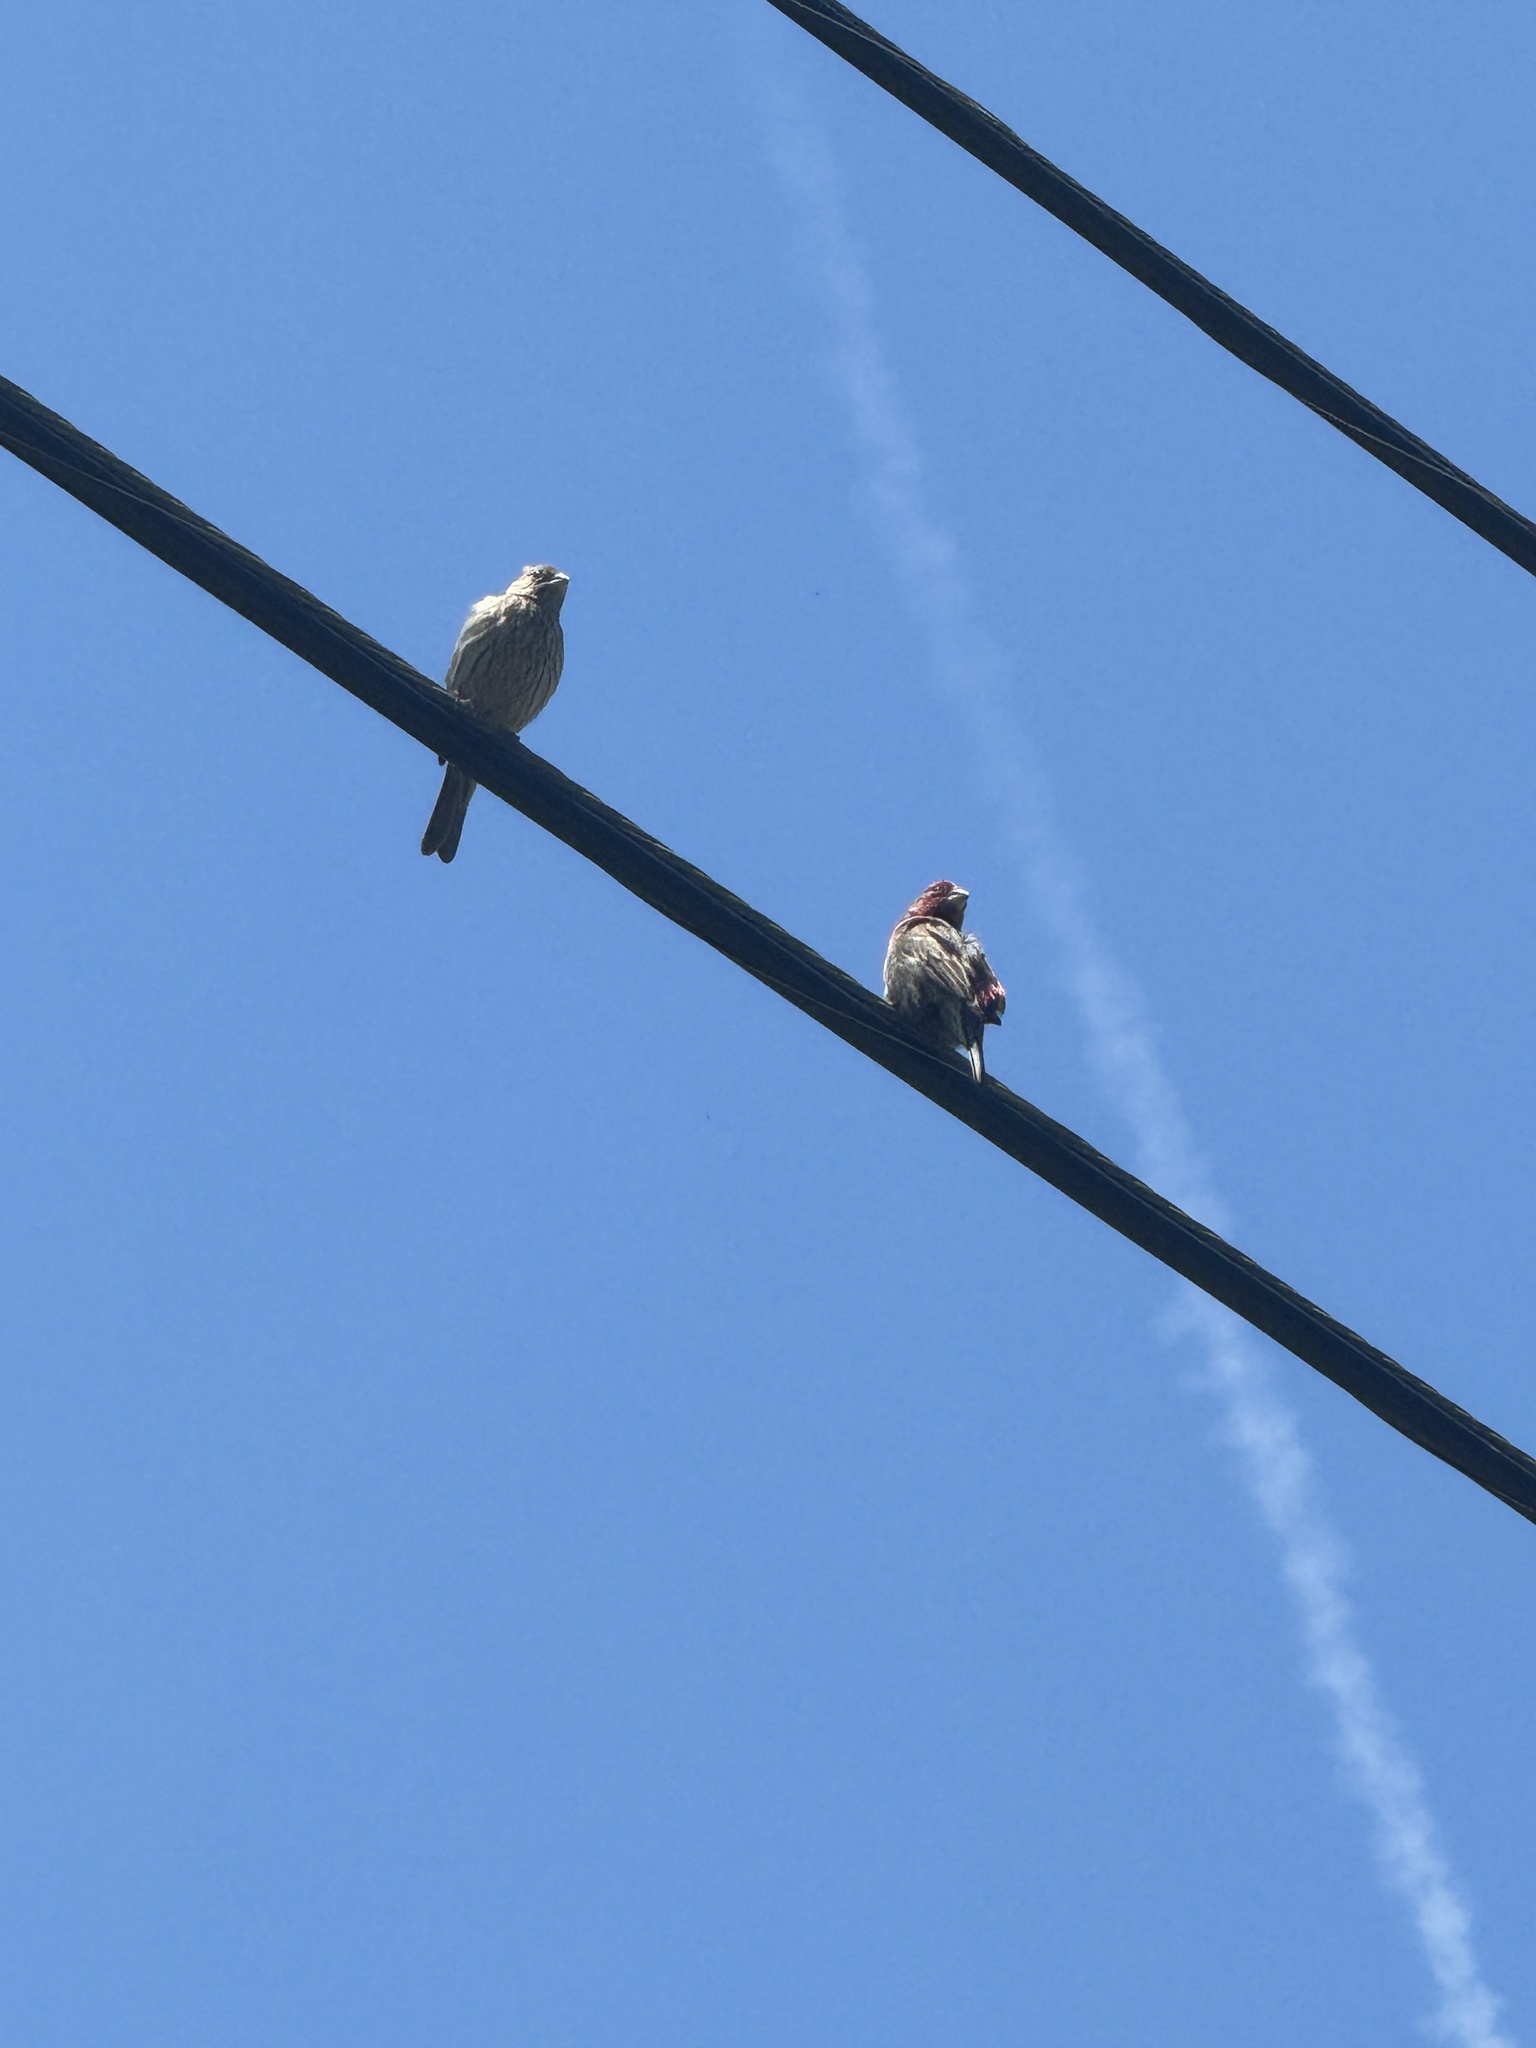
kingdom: Animalia
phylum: Chordata
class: Aves
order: Passeriformes
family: Fringillidae
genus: Haemorhous
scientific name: Haemorhous mexicanus
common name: House finch
